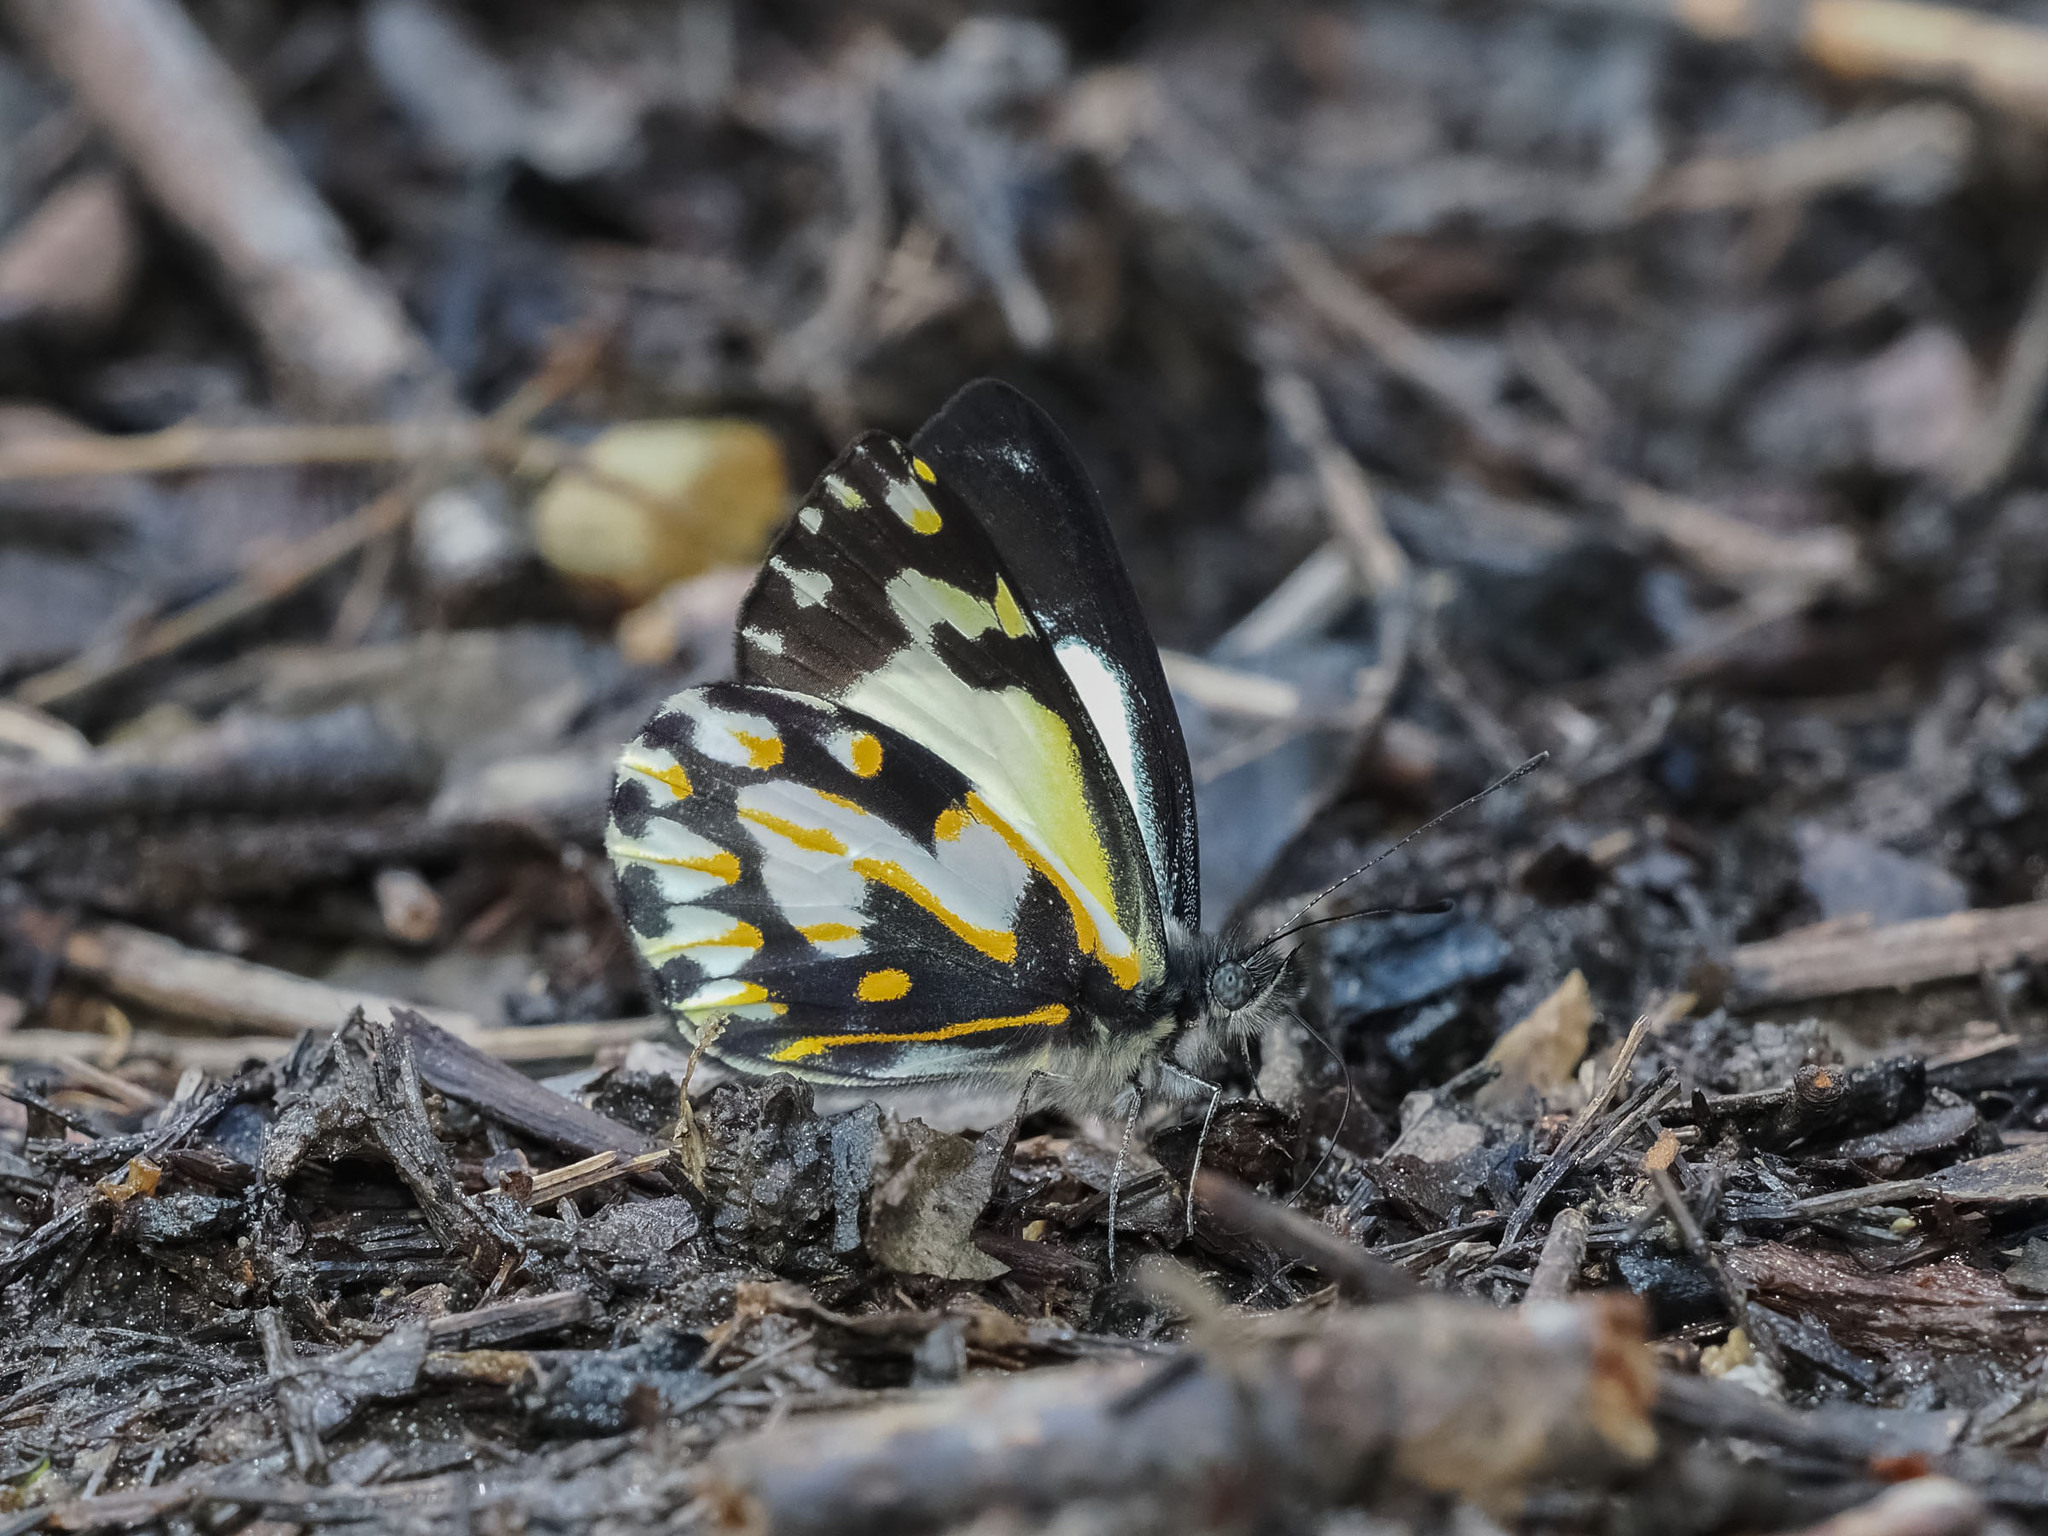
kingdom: Animalia
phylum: Arthropoda
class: Insecta
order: Lepidoptera
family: Pieridae
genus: Delias
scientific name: Delias catisa
